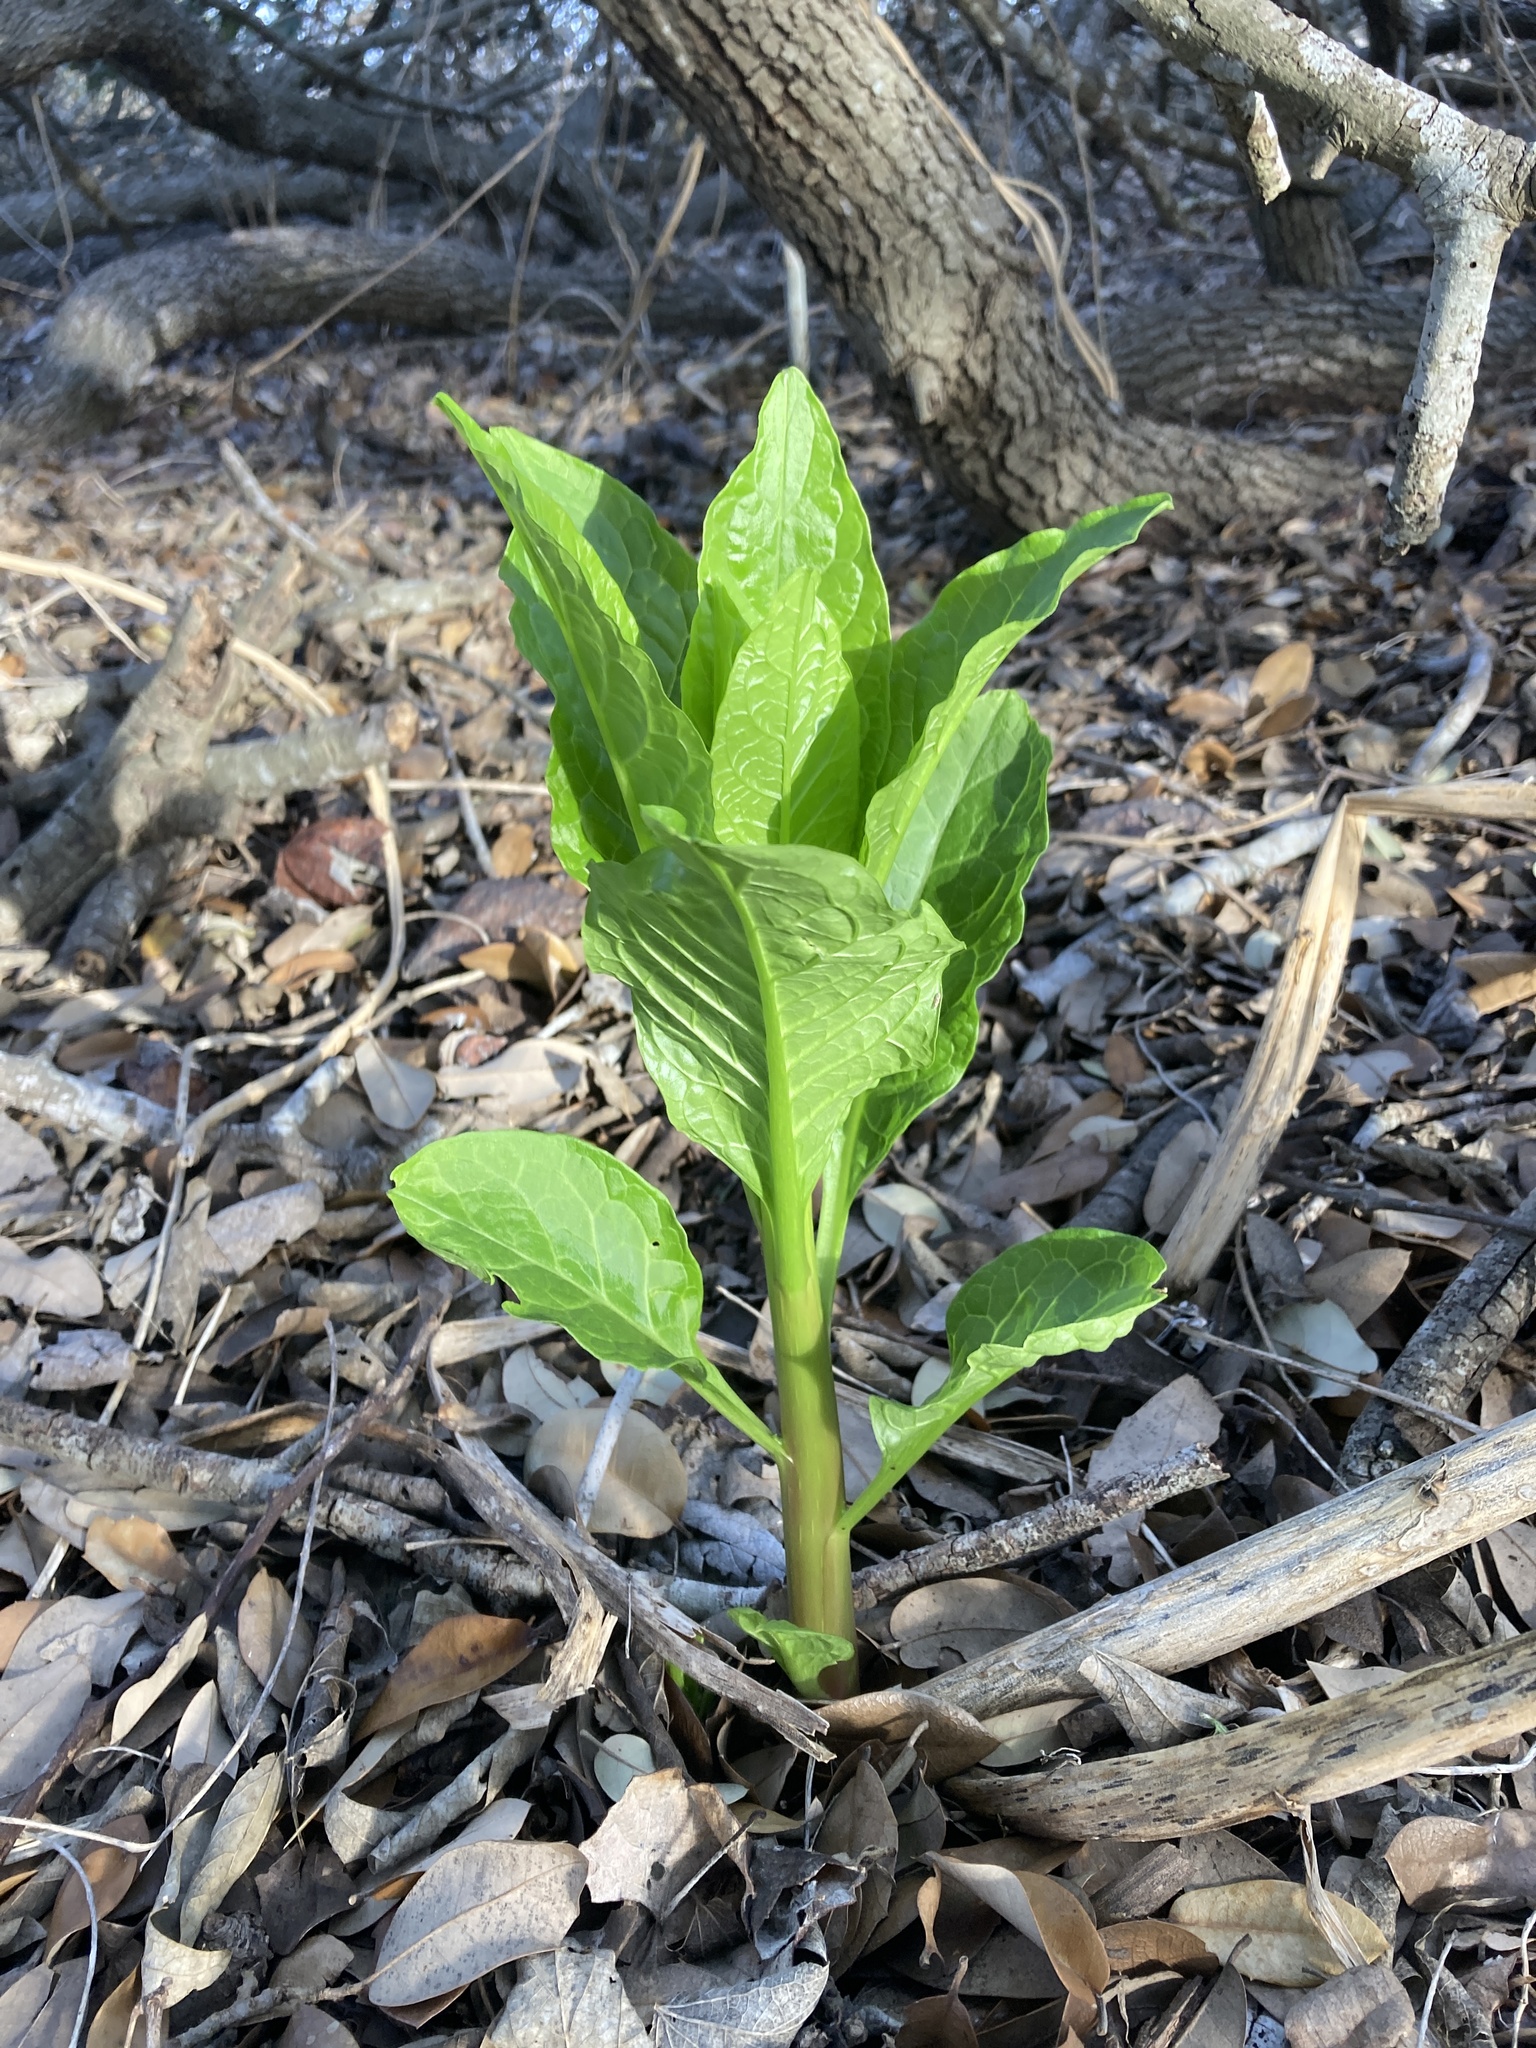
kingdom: Plantae
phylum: Tracheophyta
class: Magnoliopsida
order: Caryophyllales
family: Phytolaccaceae
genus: Phytolacca
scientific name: Phytolacca americana
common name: American pokeweed
